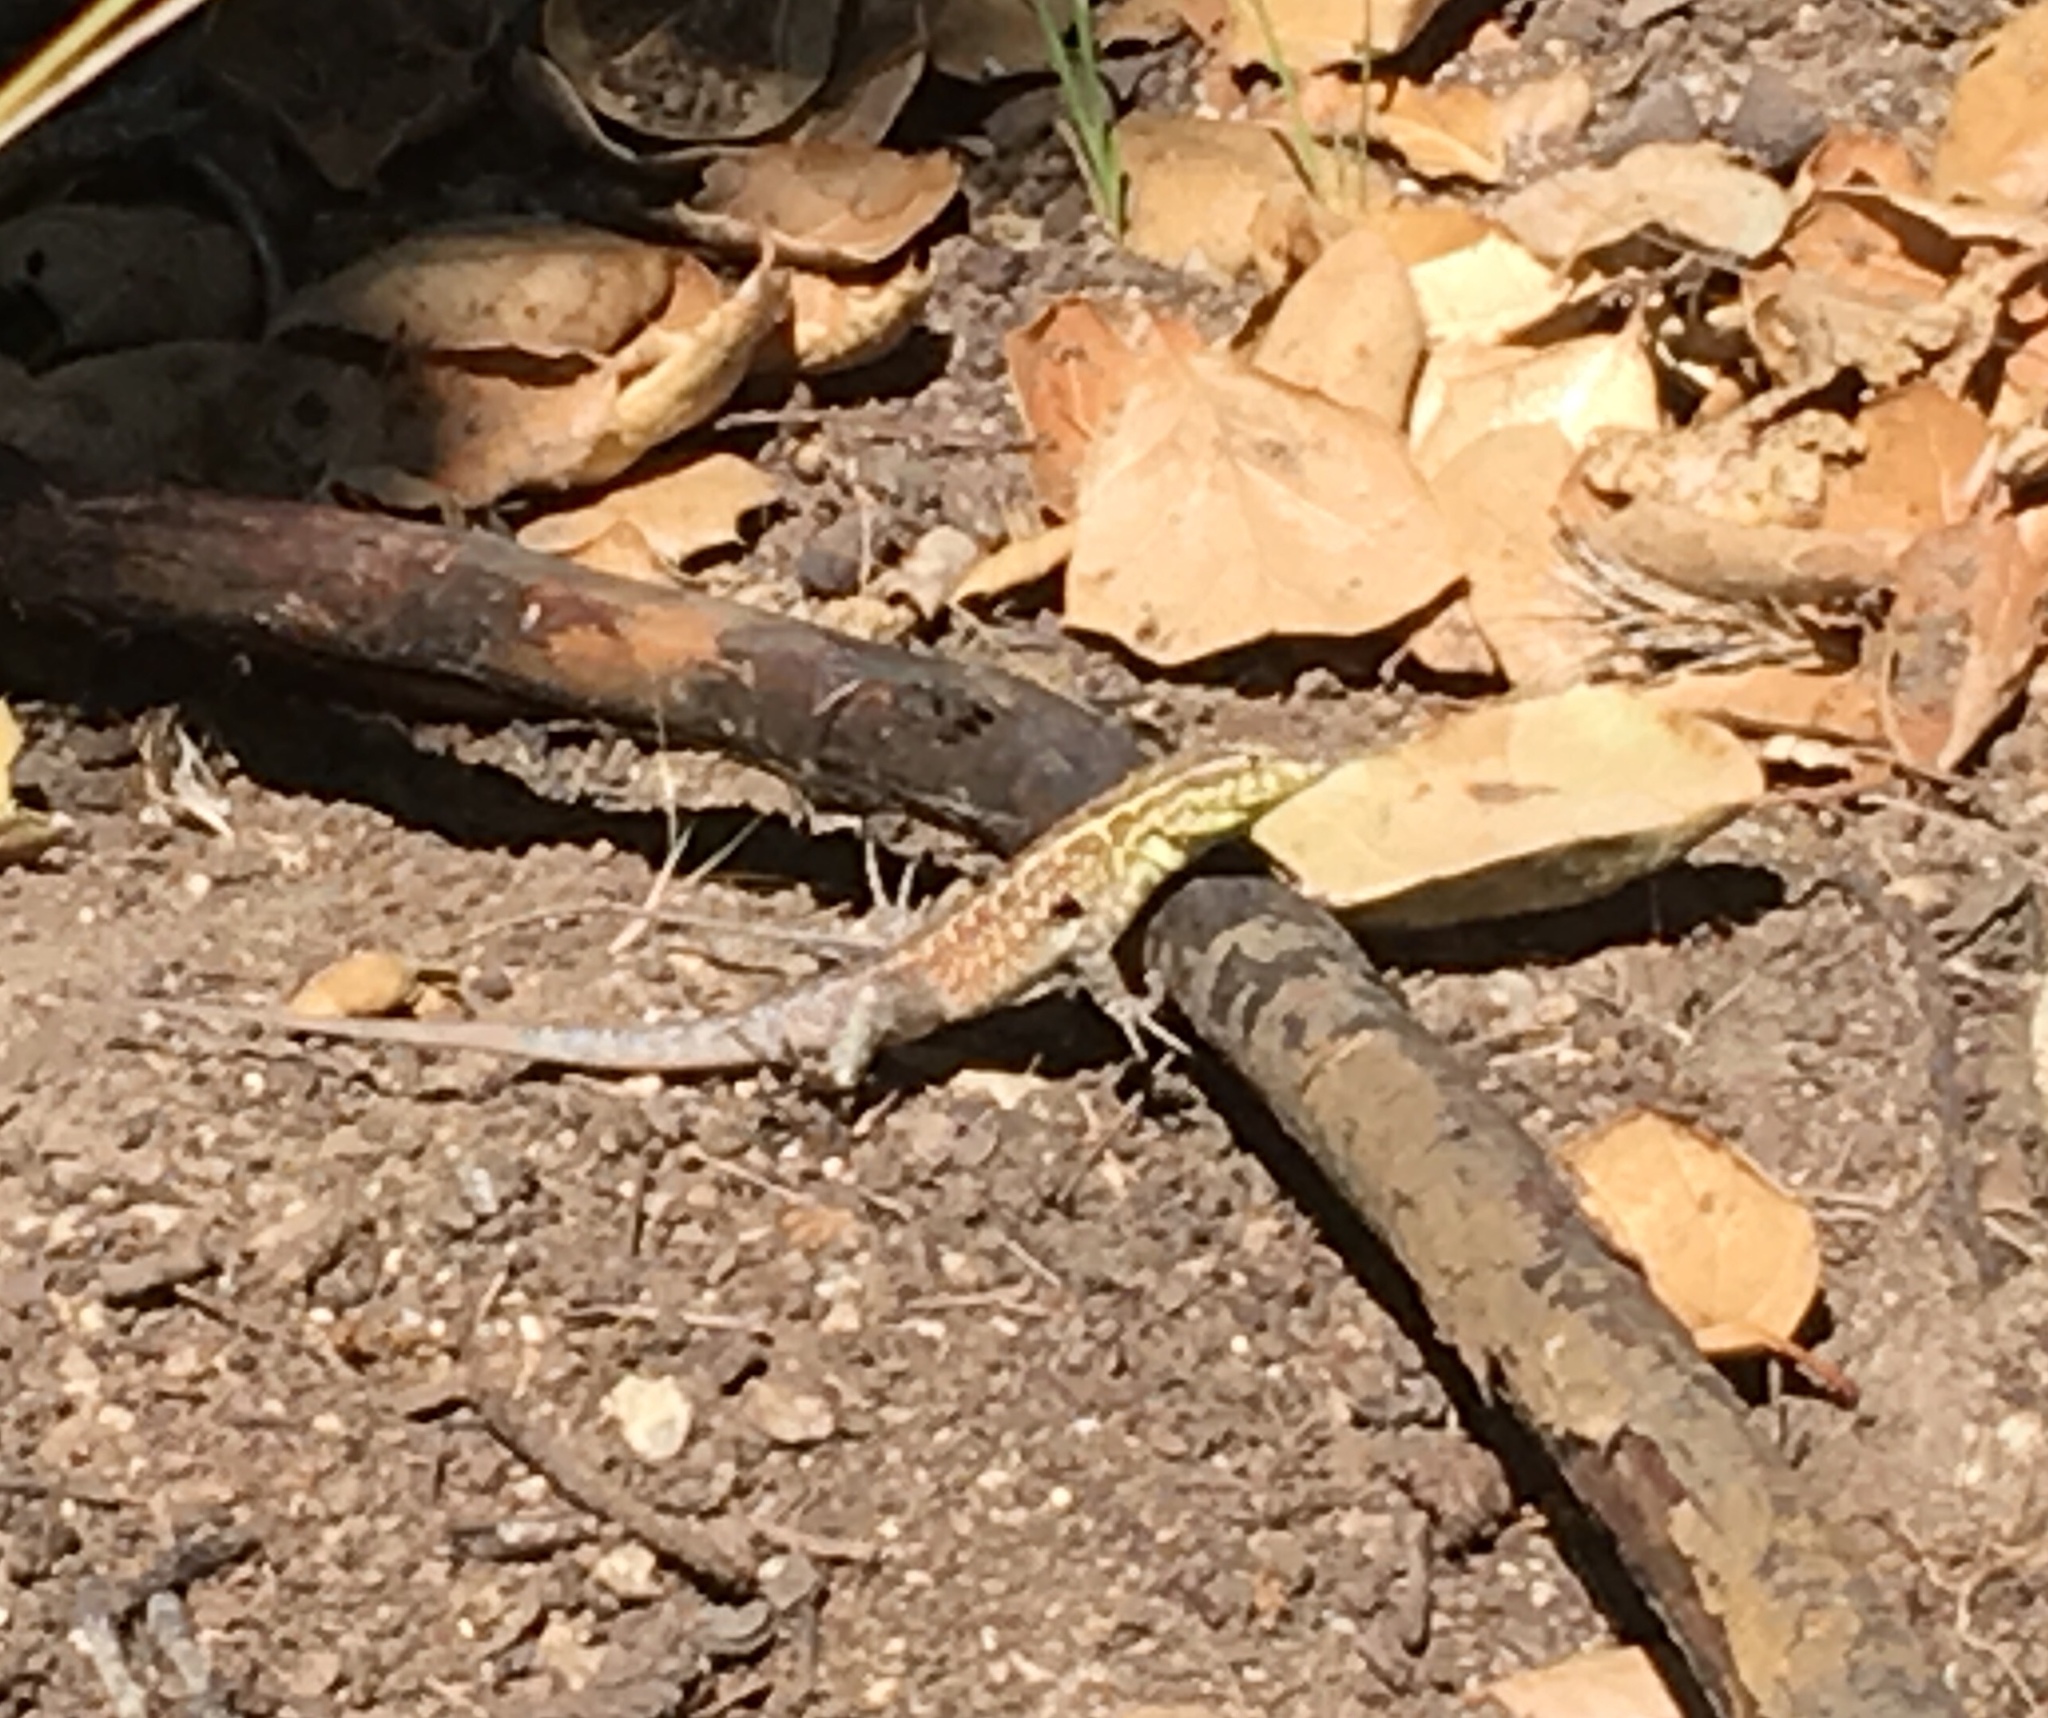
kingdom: Animalia
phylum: Chordata
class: Squamata
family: Phrynosomatidae
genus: Uta
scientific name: Uta stansburiana
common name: Side-blotched lizard
